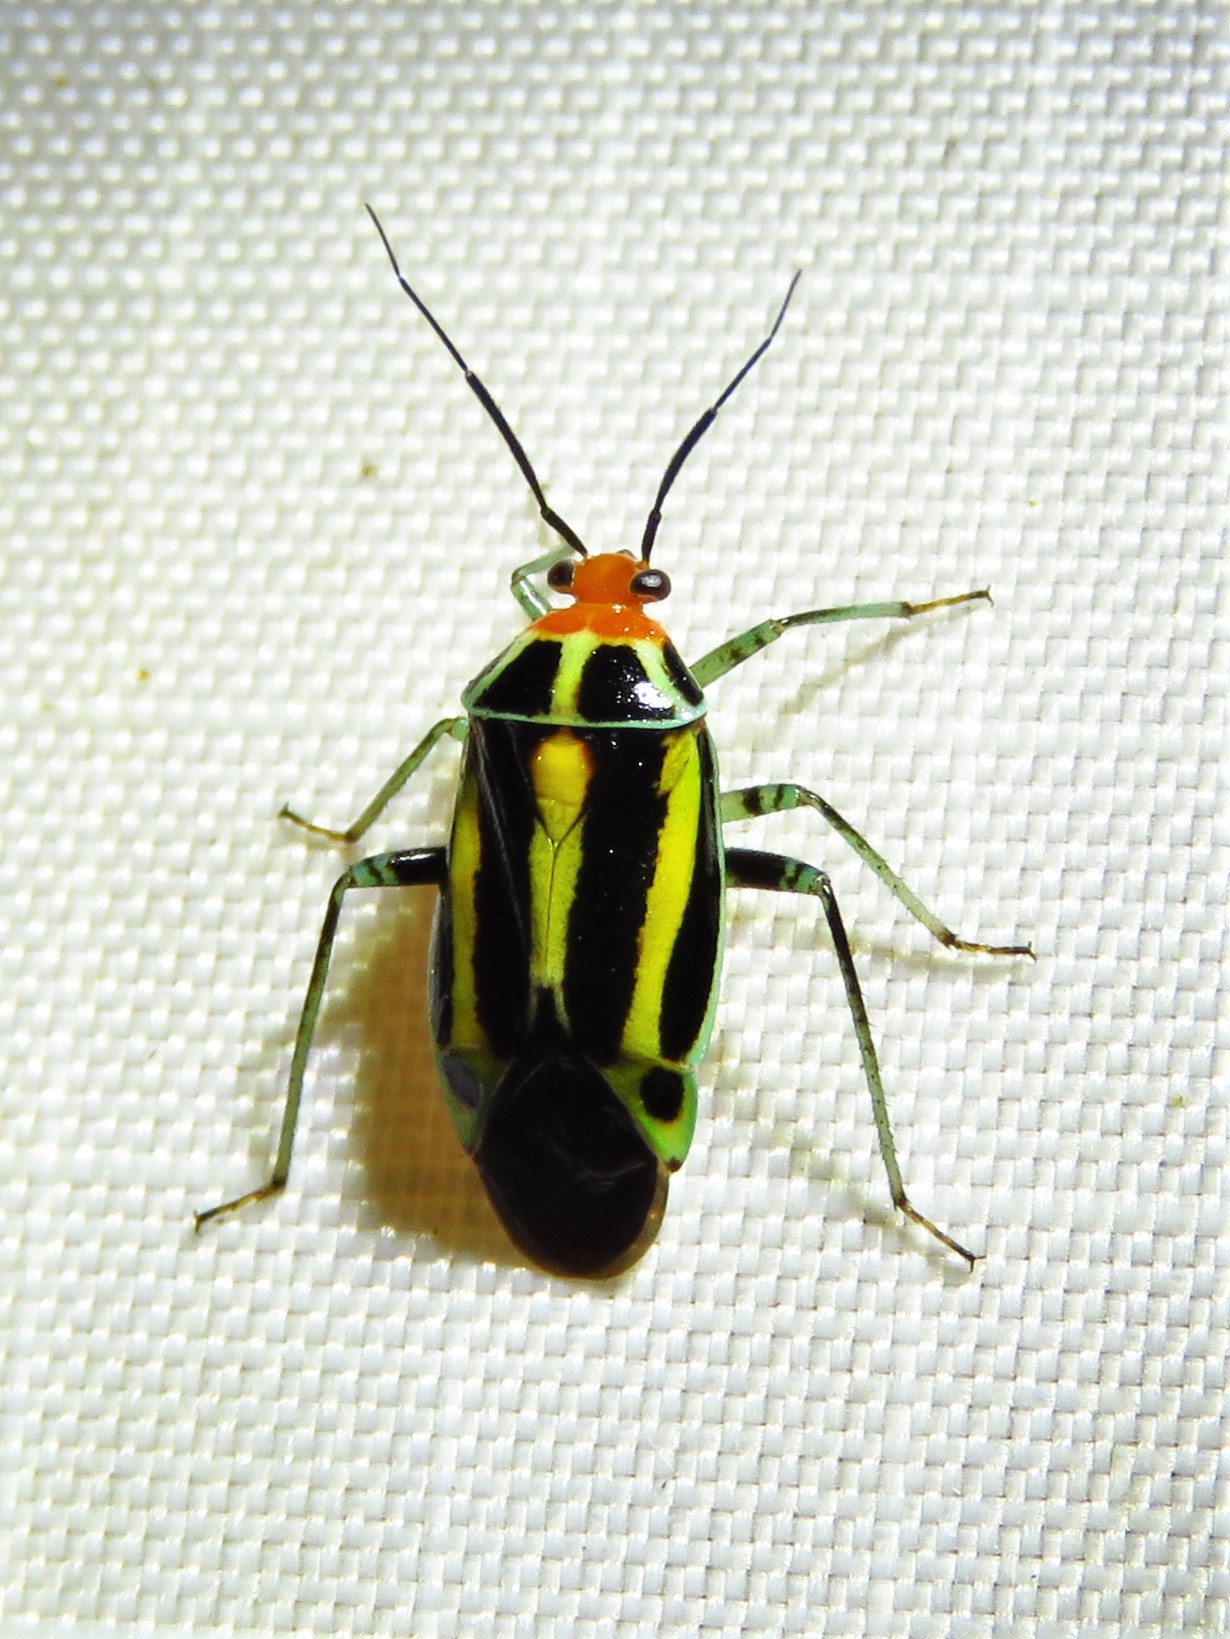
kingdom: Animalia
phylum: Arthropoda
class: Insecta
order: Hemiptera
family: Miridae
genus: Poecilocapsus
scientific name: Poecilocapsus lineatus
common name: Four-lined plant bug
